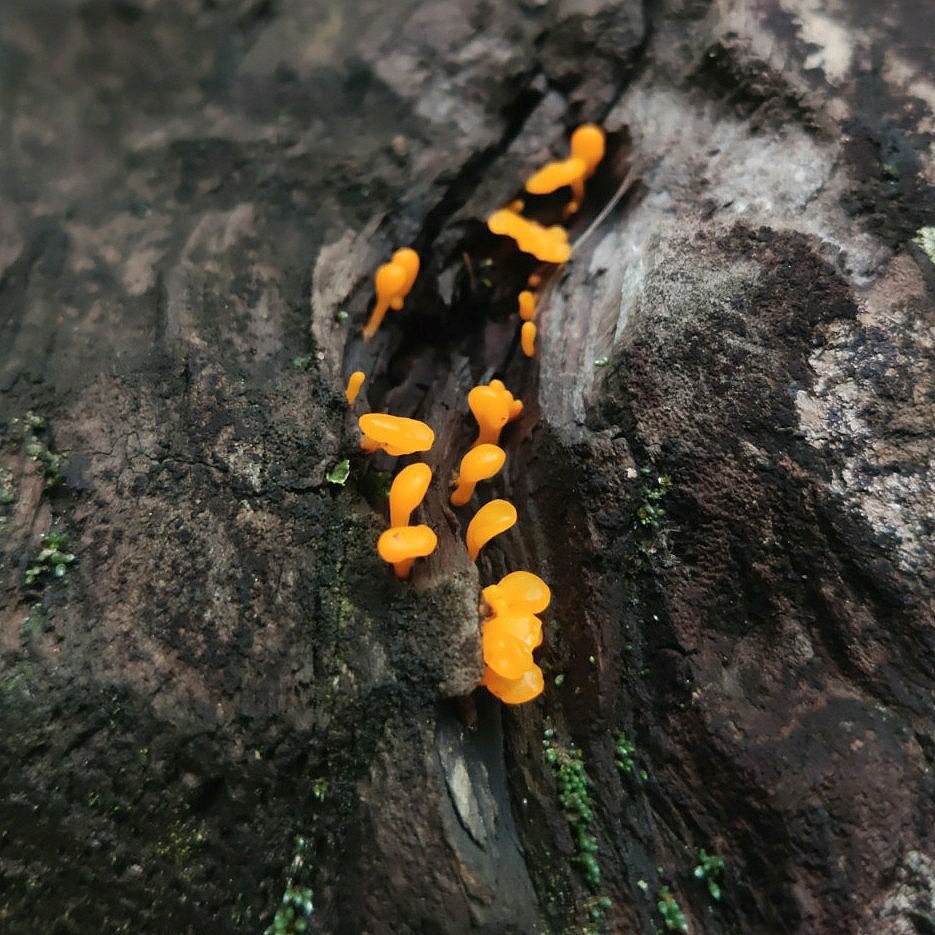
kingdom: Fungi
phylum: Basidiomycota
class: Dacrymycetes
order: Dacrymycetales
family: Dacrymycetaceae
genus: Dacrymyces
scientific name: Dacrymyces spathularius
